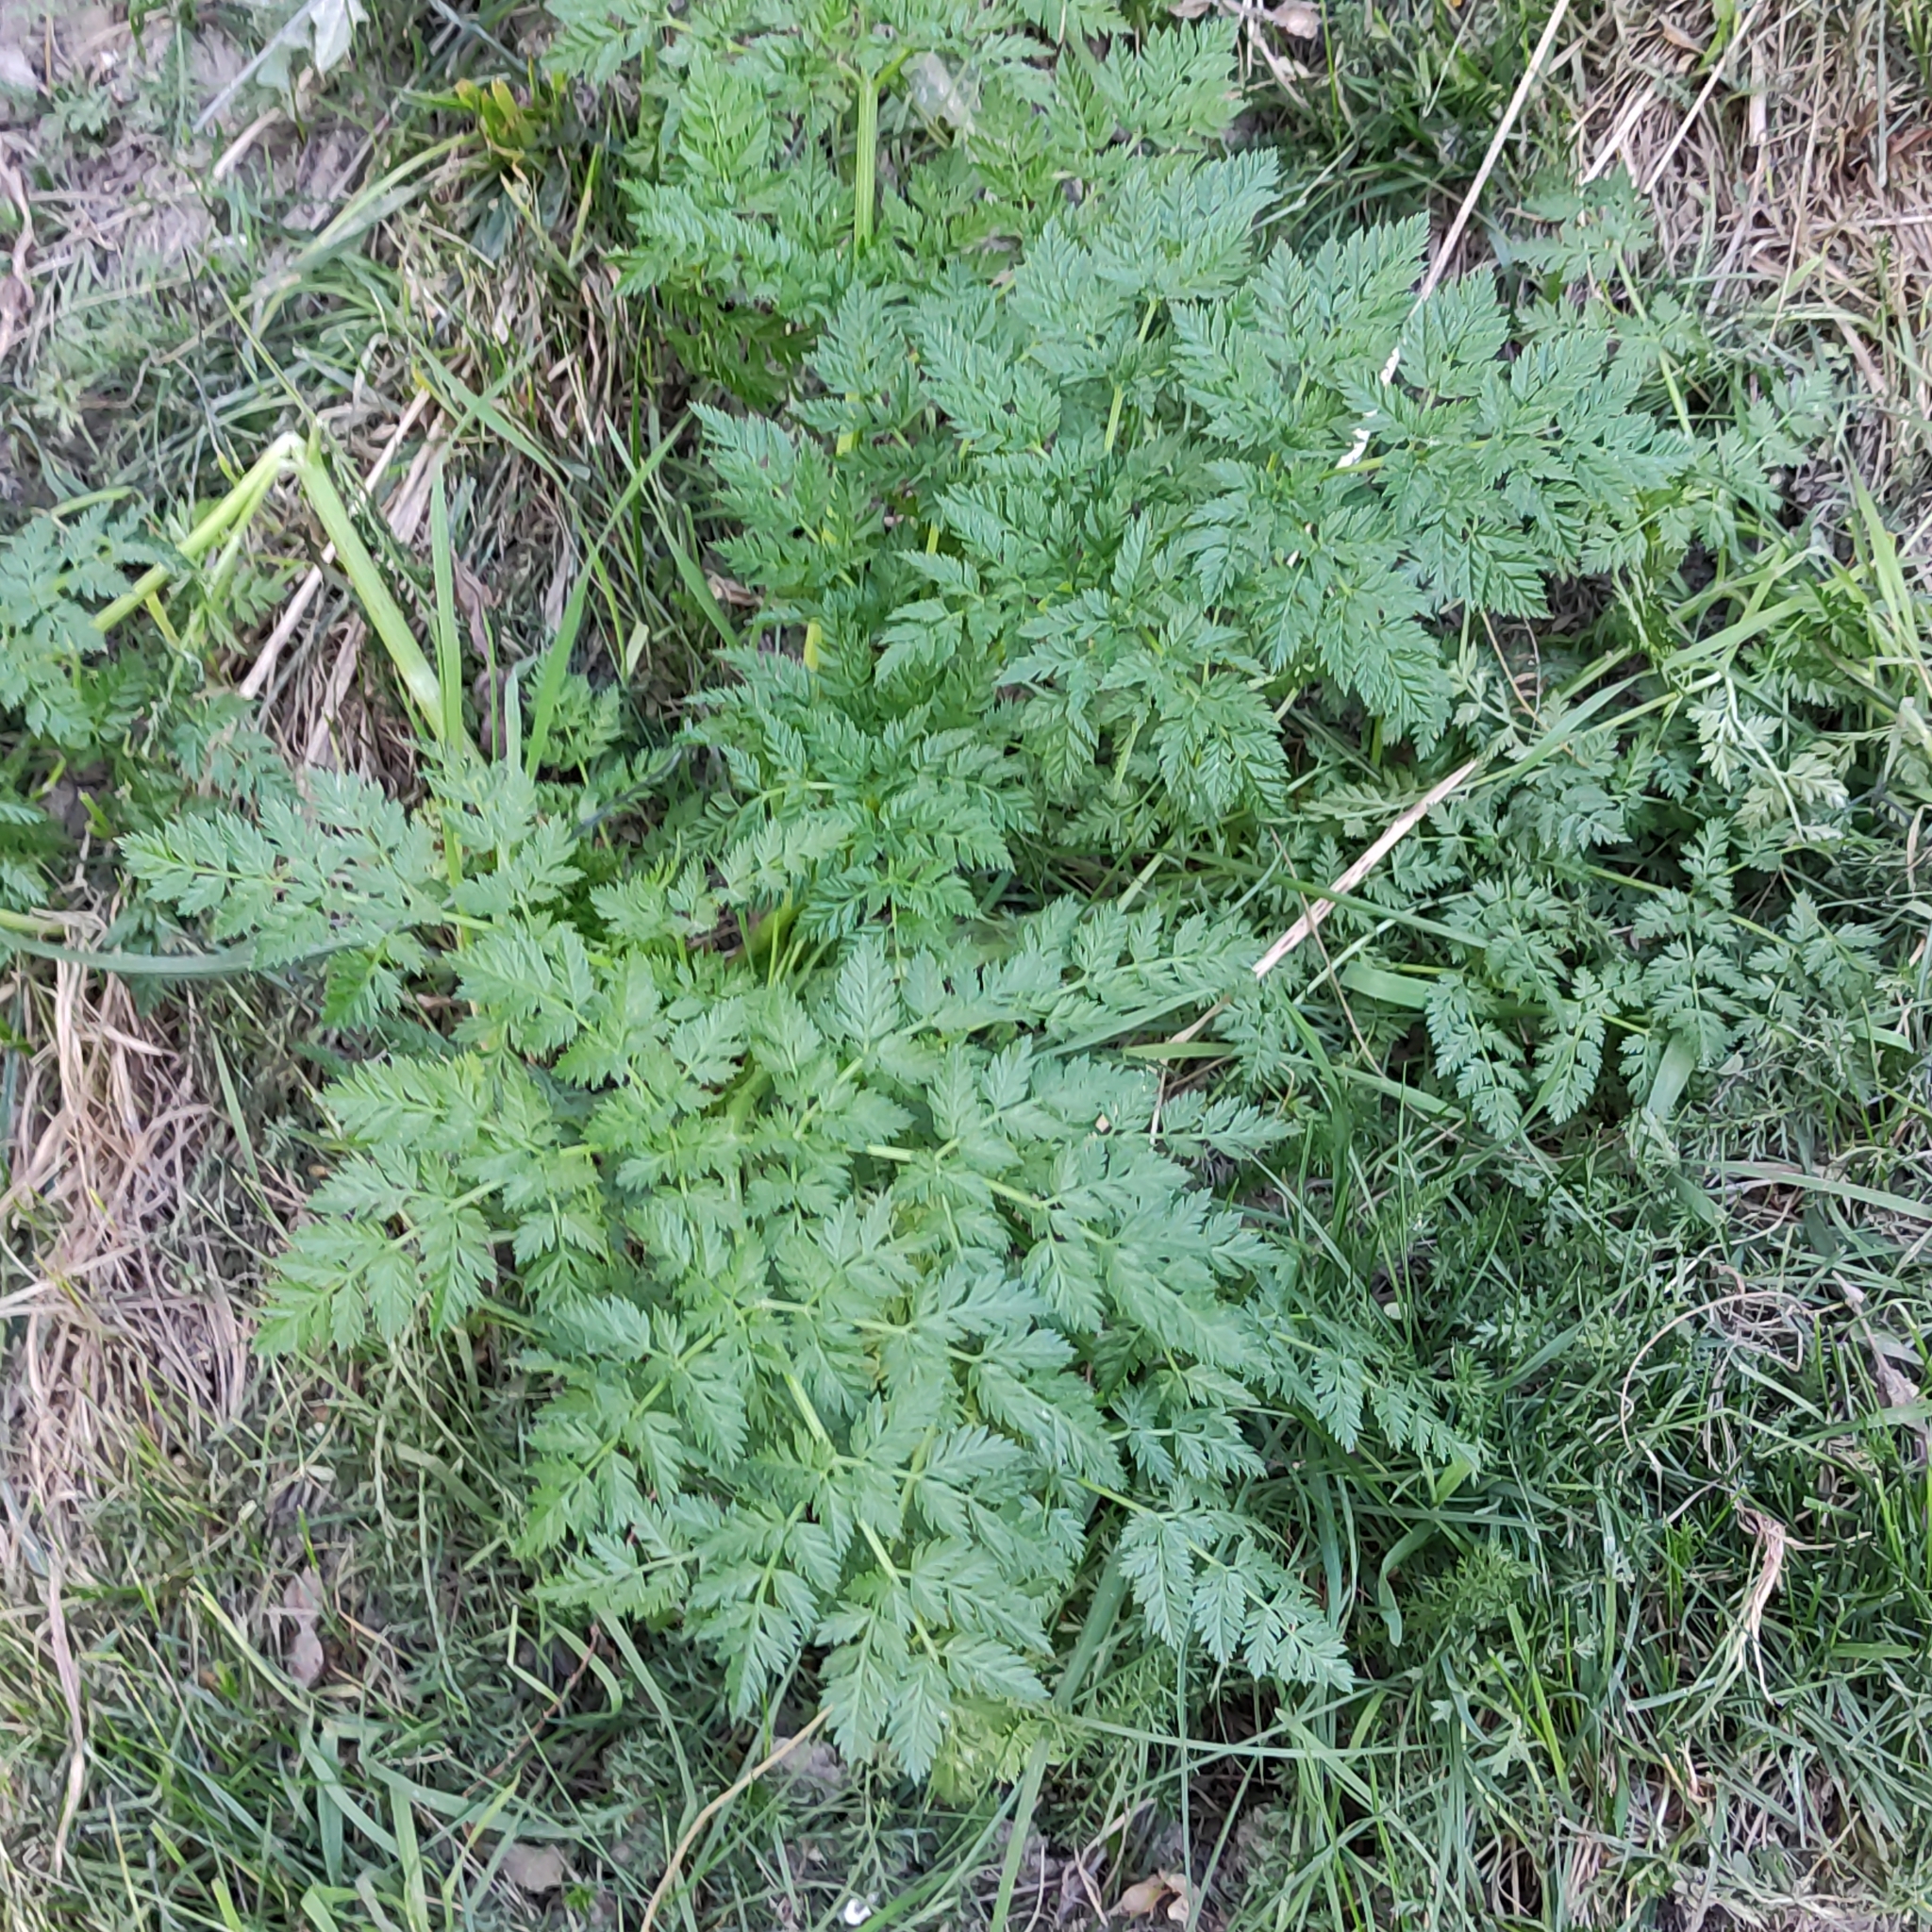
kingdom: Plantae
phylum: Tracheophyta
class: Magnoliopsida
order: Apiales
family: Apiaceae
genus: Conium
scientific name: Conium maculatum
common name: Hemlock
